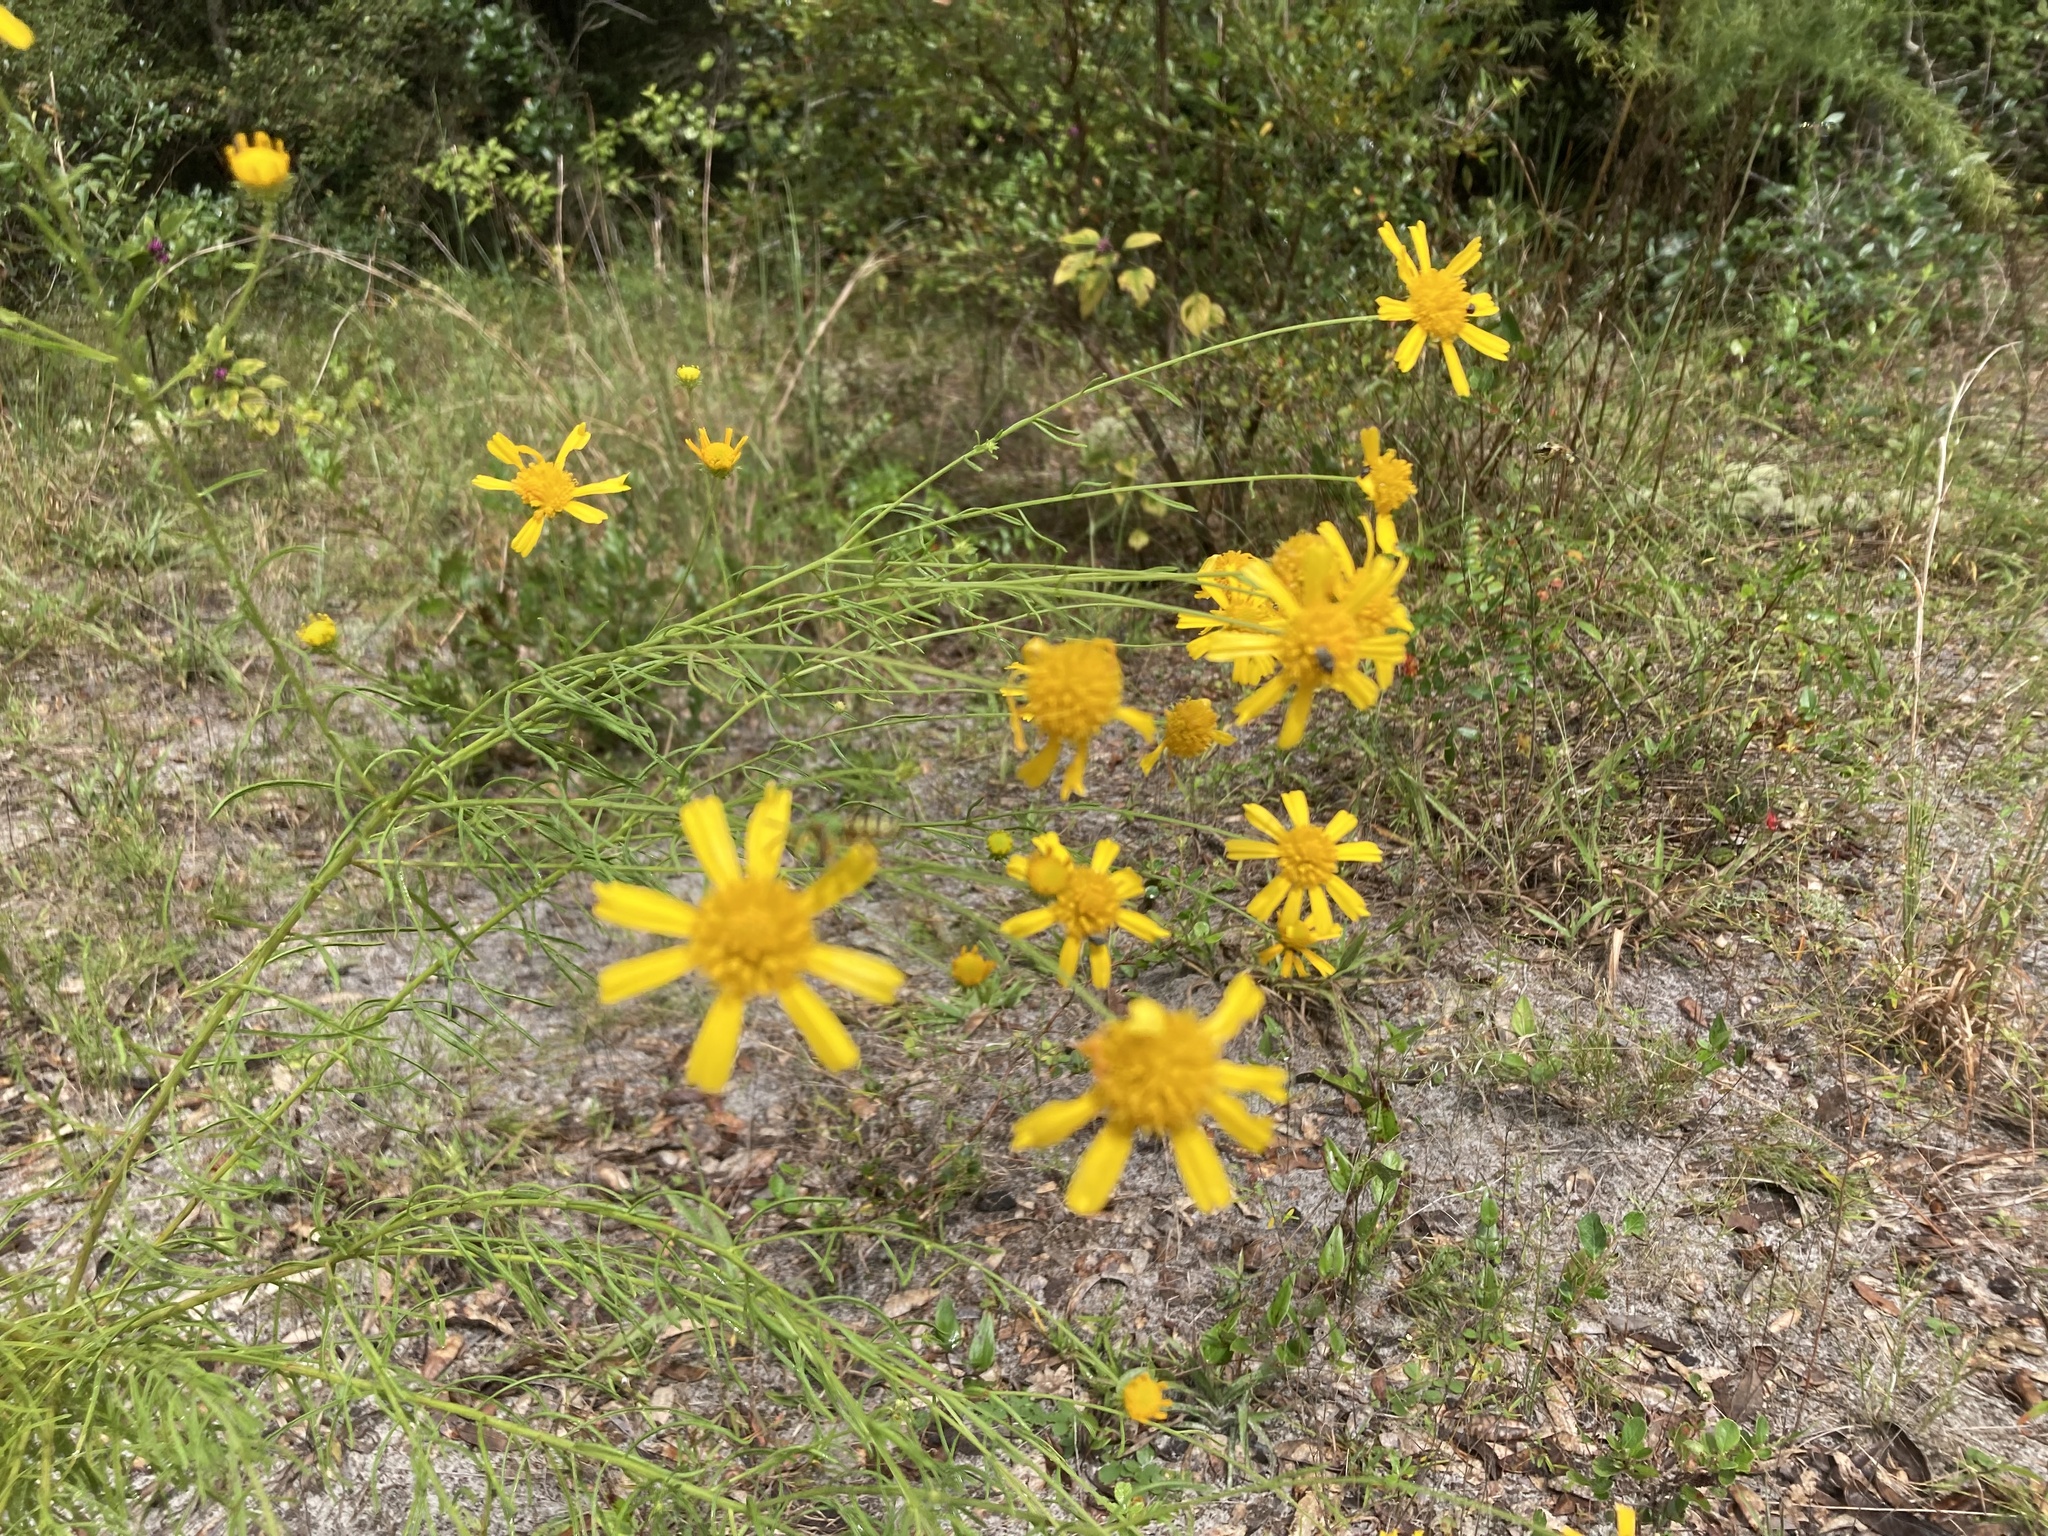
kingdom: Plantae
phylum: Tracheophyta
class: Magnoliopsida
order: Asterales
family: Asteraceae
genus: Balduina
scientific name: Balduina angustifolia
